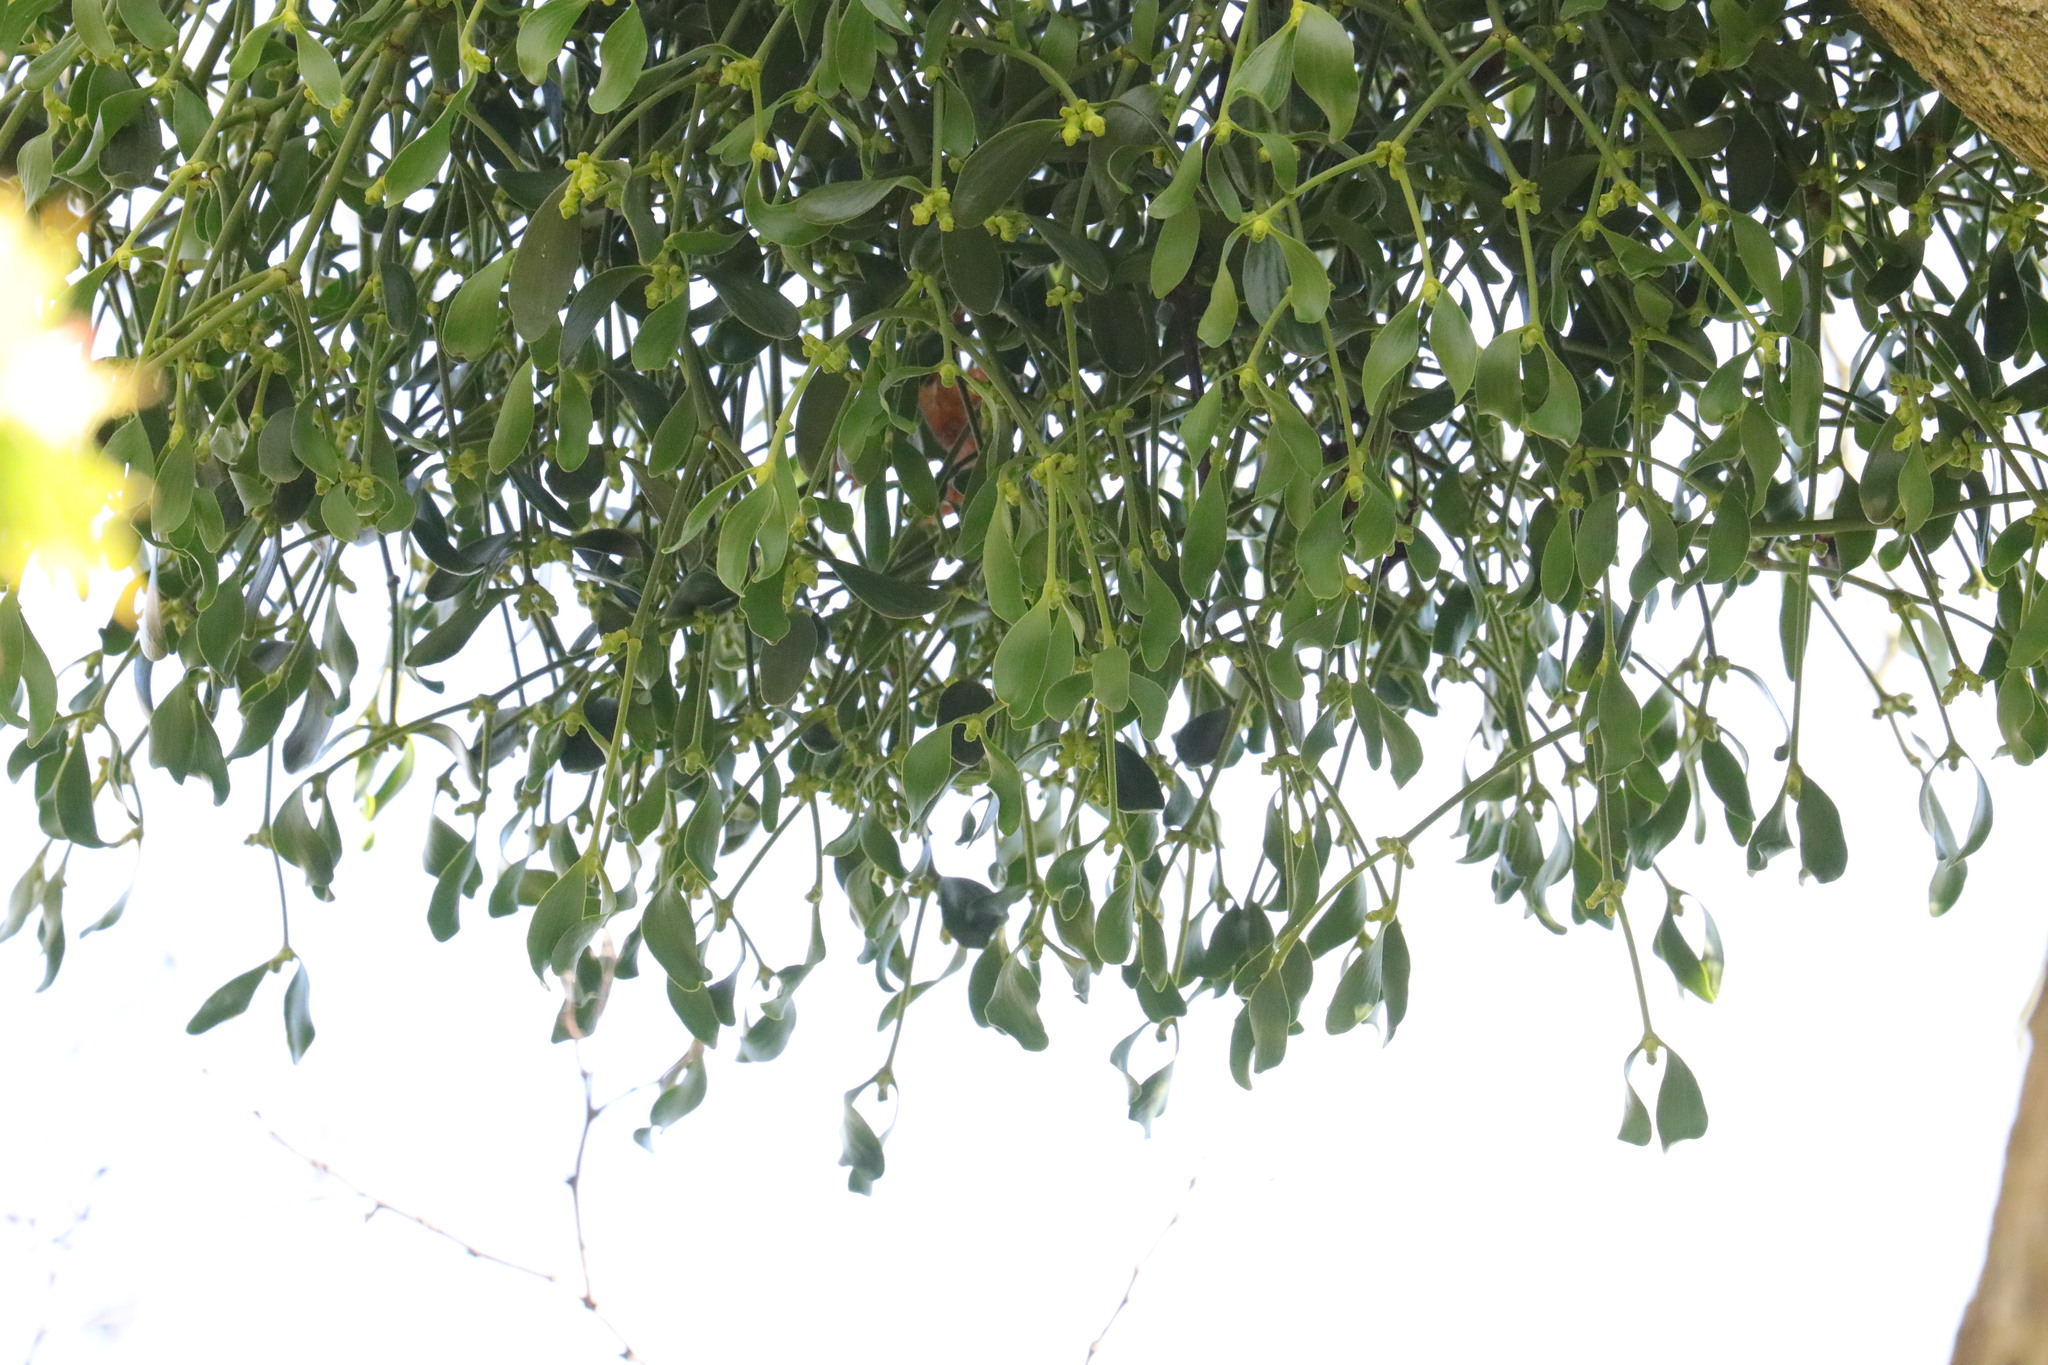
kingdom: Plantae
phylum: Tracheophyta
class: Magnoliopsida
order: Santalales
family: Viscaceae
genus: Viscum
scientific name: Viscum album
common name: Mistletoe
